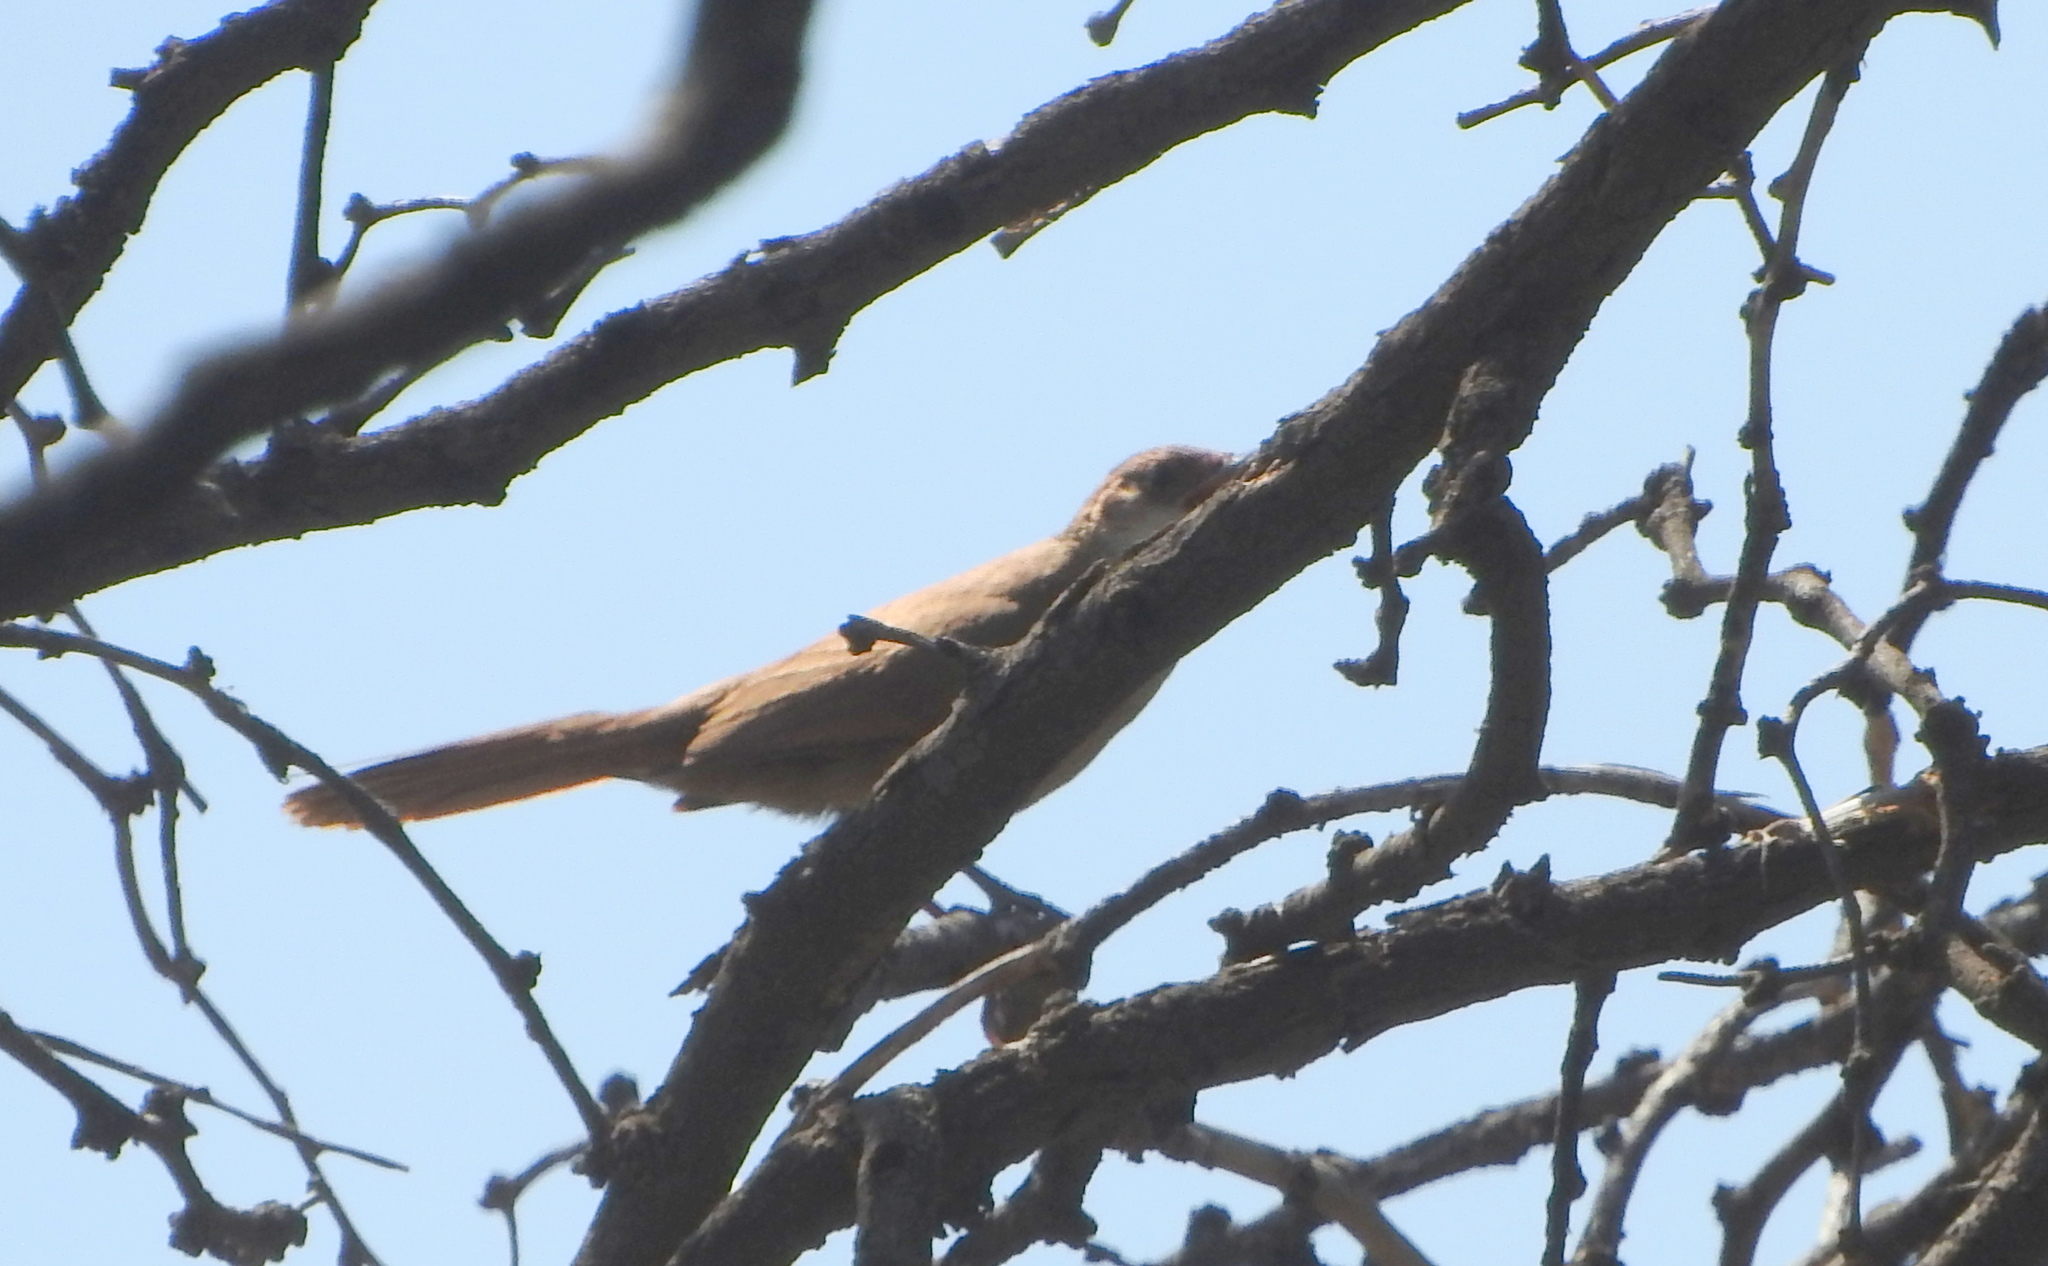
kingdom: Animalia
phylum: Chordata
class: Aves
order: Passeriformes
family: Furnariidae
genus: Upucerthia
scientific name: Upucerthia certhioides
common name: Chaco earthcreeper
